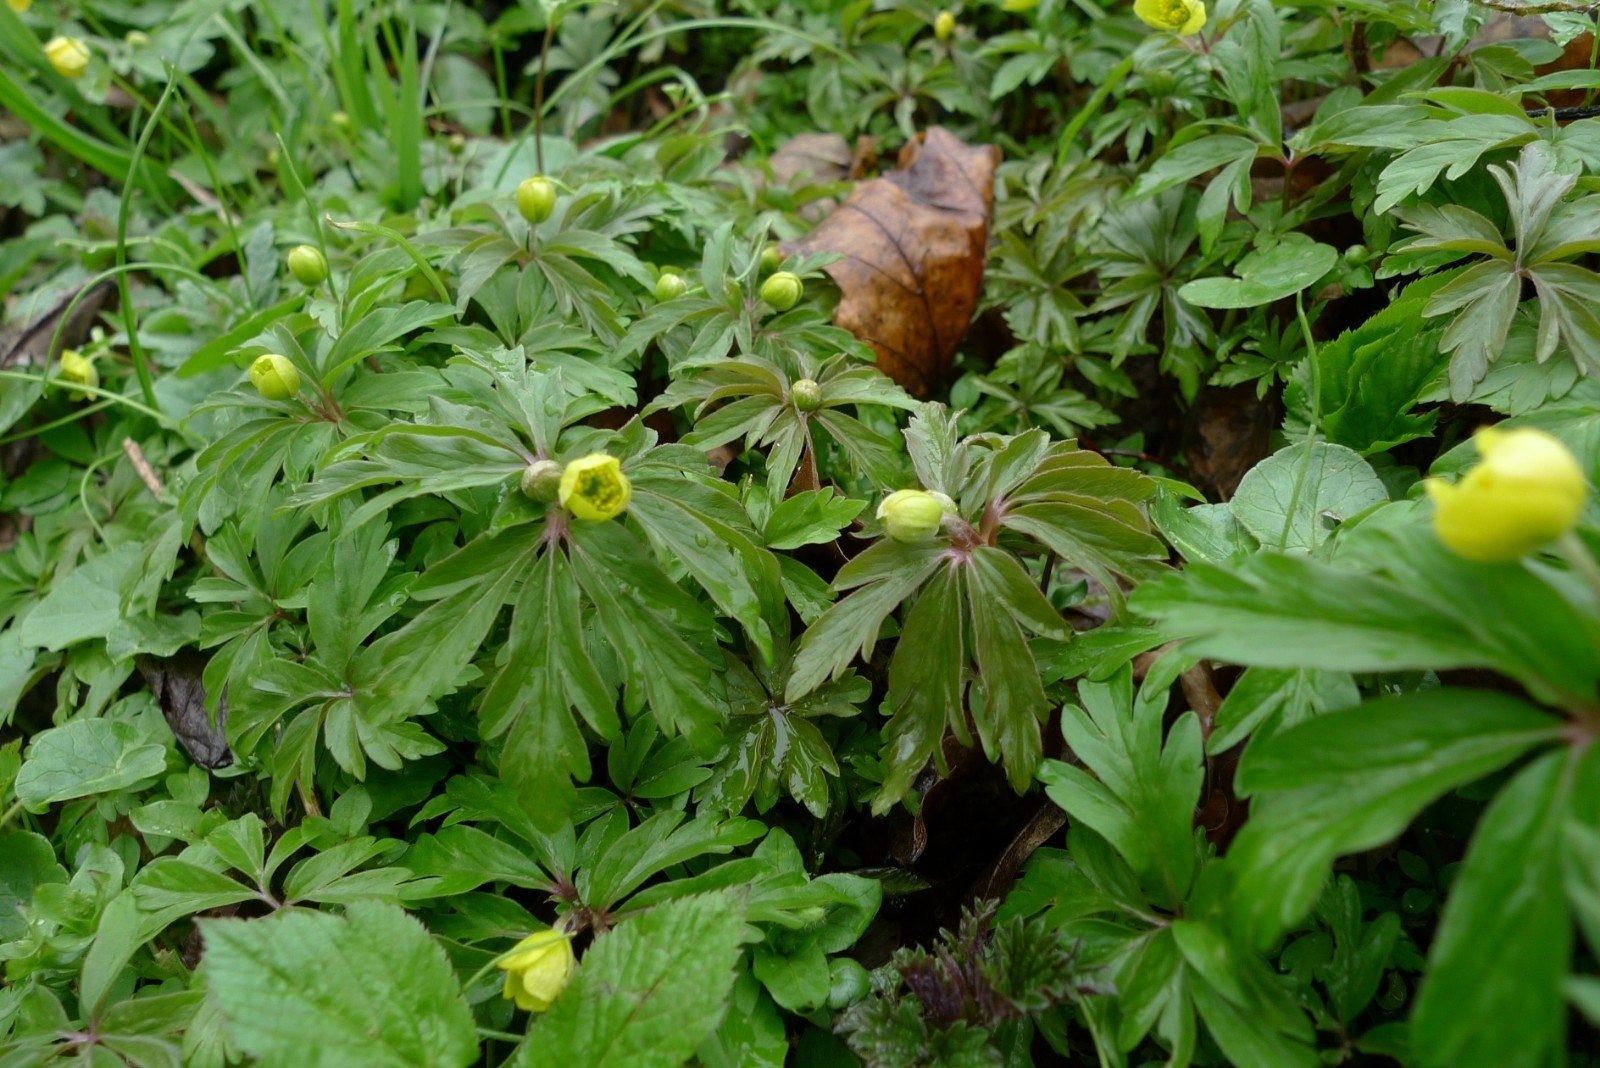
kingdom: Plantae
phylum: Tracheophyta
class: Magnoliopsida
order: Ranunculales
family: Ranunculaceae
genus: Anemone
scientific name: Anemone ranunculoides
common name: Yellow anemone
